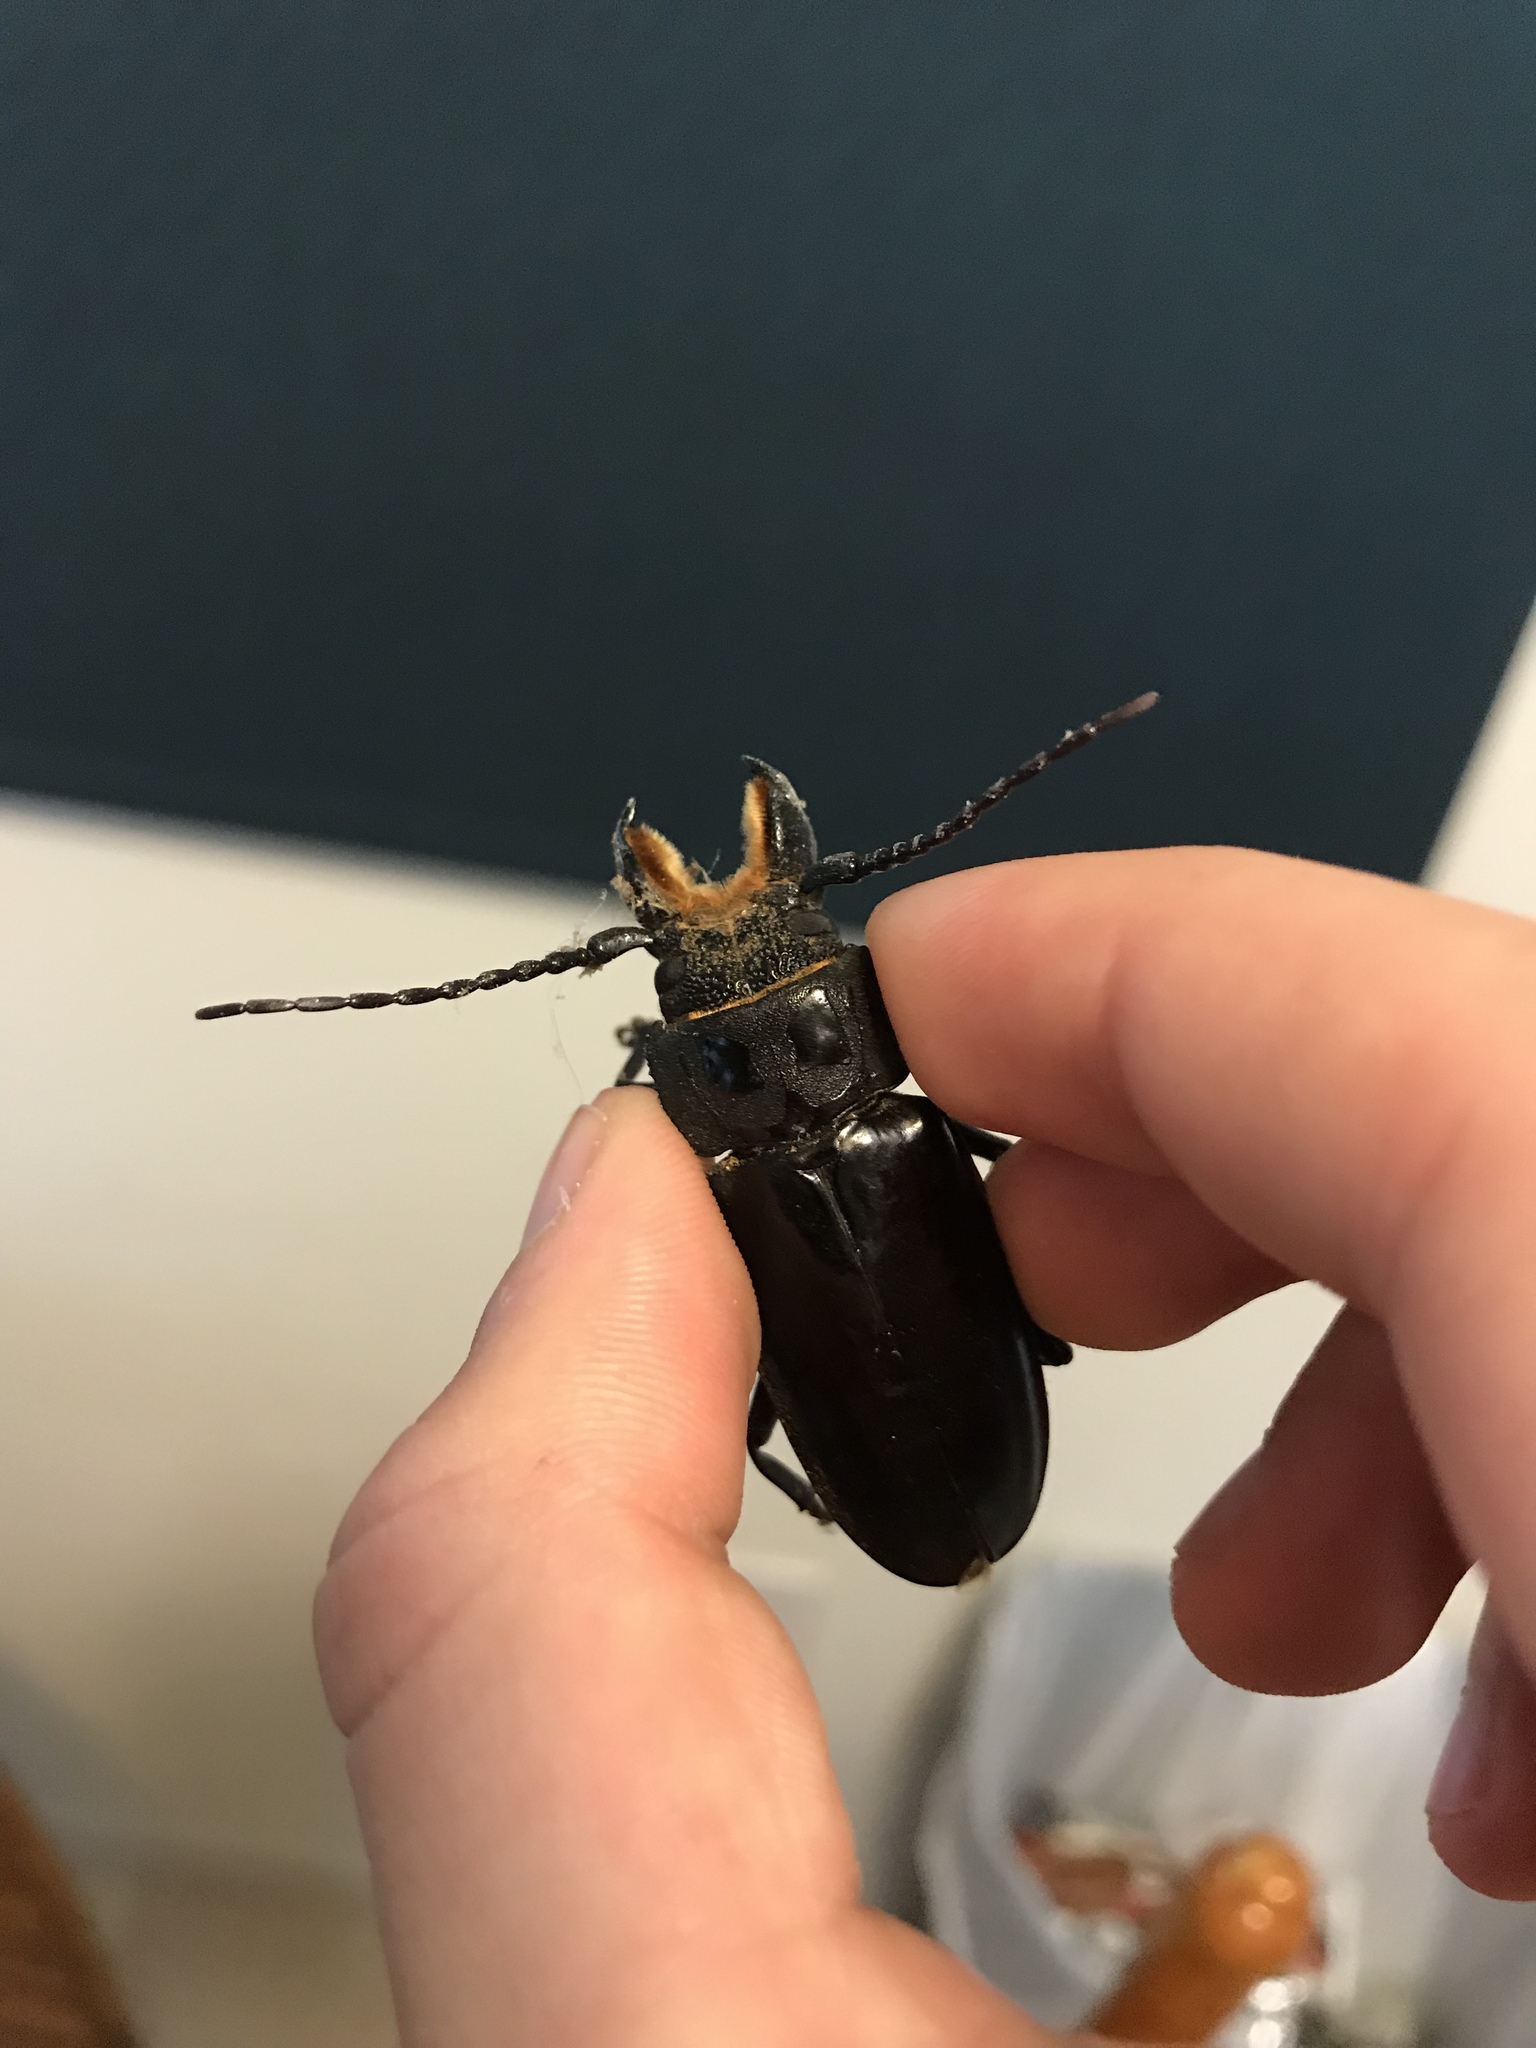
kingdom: Animalia
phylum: Arthropoda
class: Insecta
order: Coleoptera
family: Cerambycidae
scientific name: Cerambycidae
